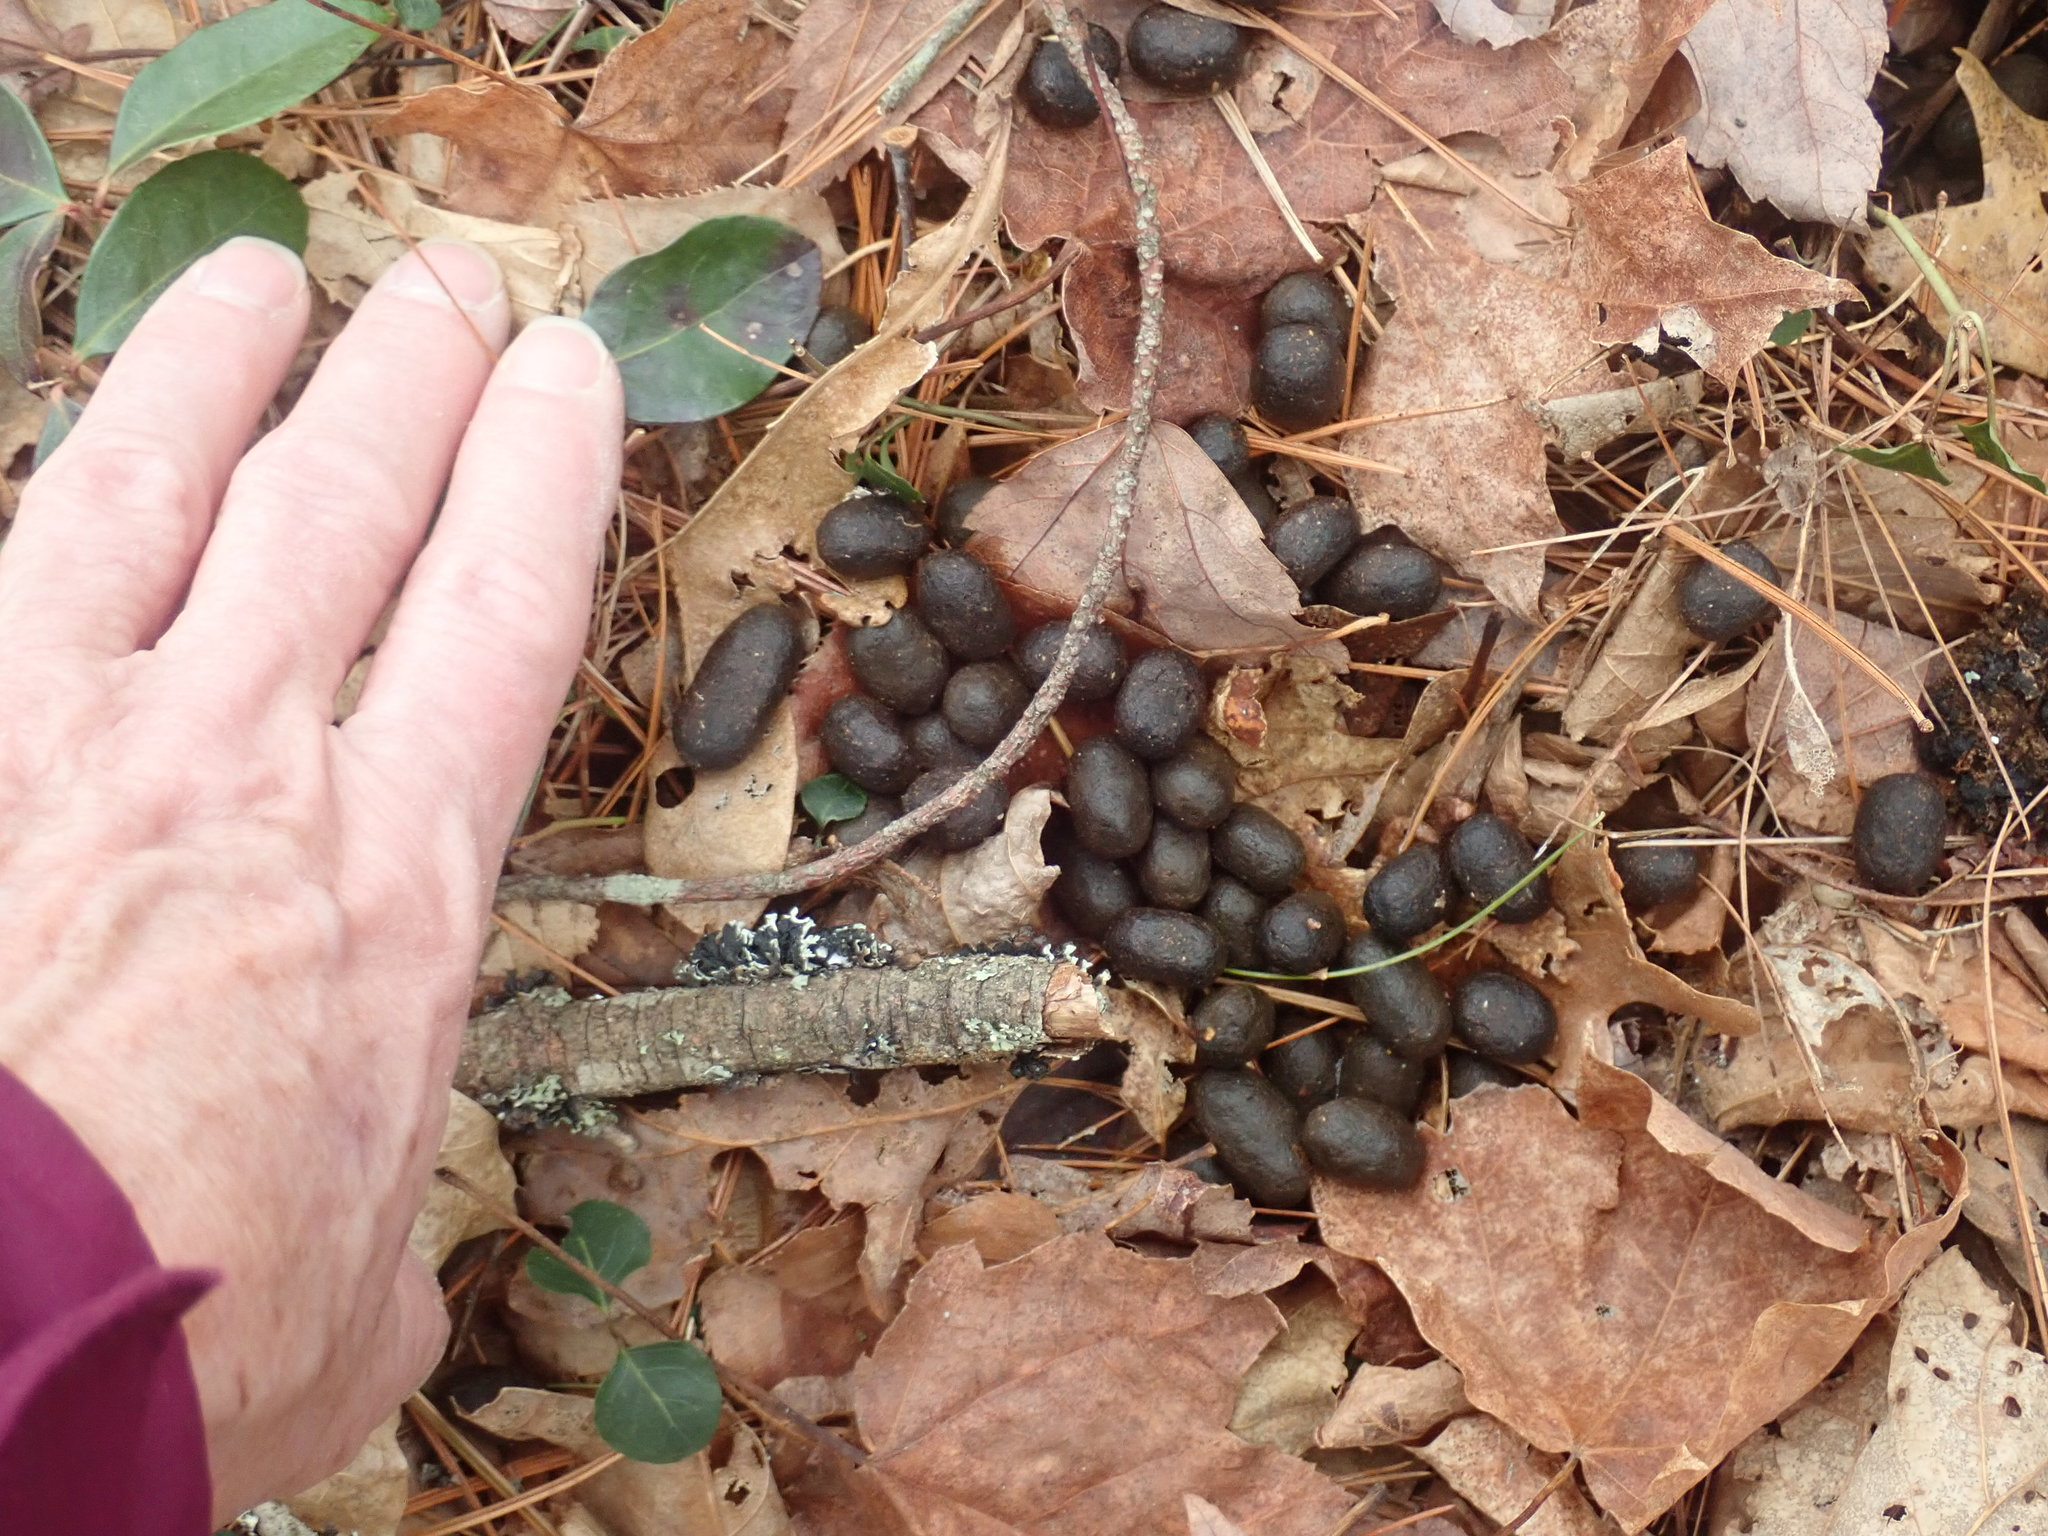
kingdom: Animalia
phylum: Chordata
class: Mammalia
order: Artiodactyla
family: Cervidae
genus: Odocoileus
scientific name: Odocoileus virginianus
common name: White-tailed deer
